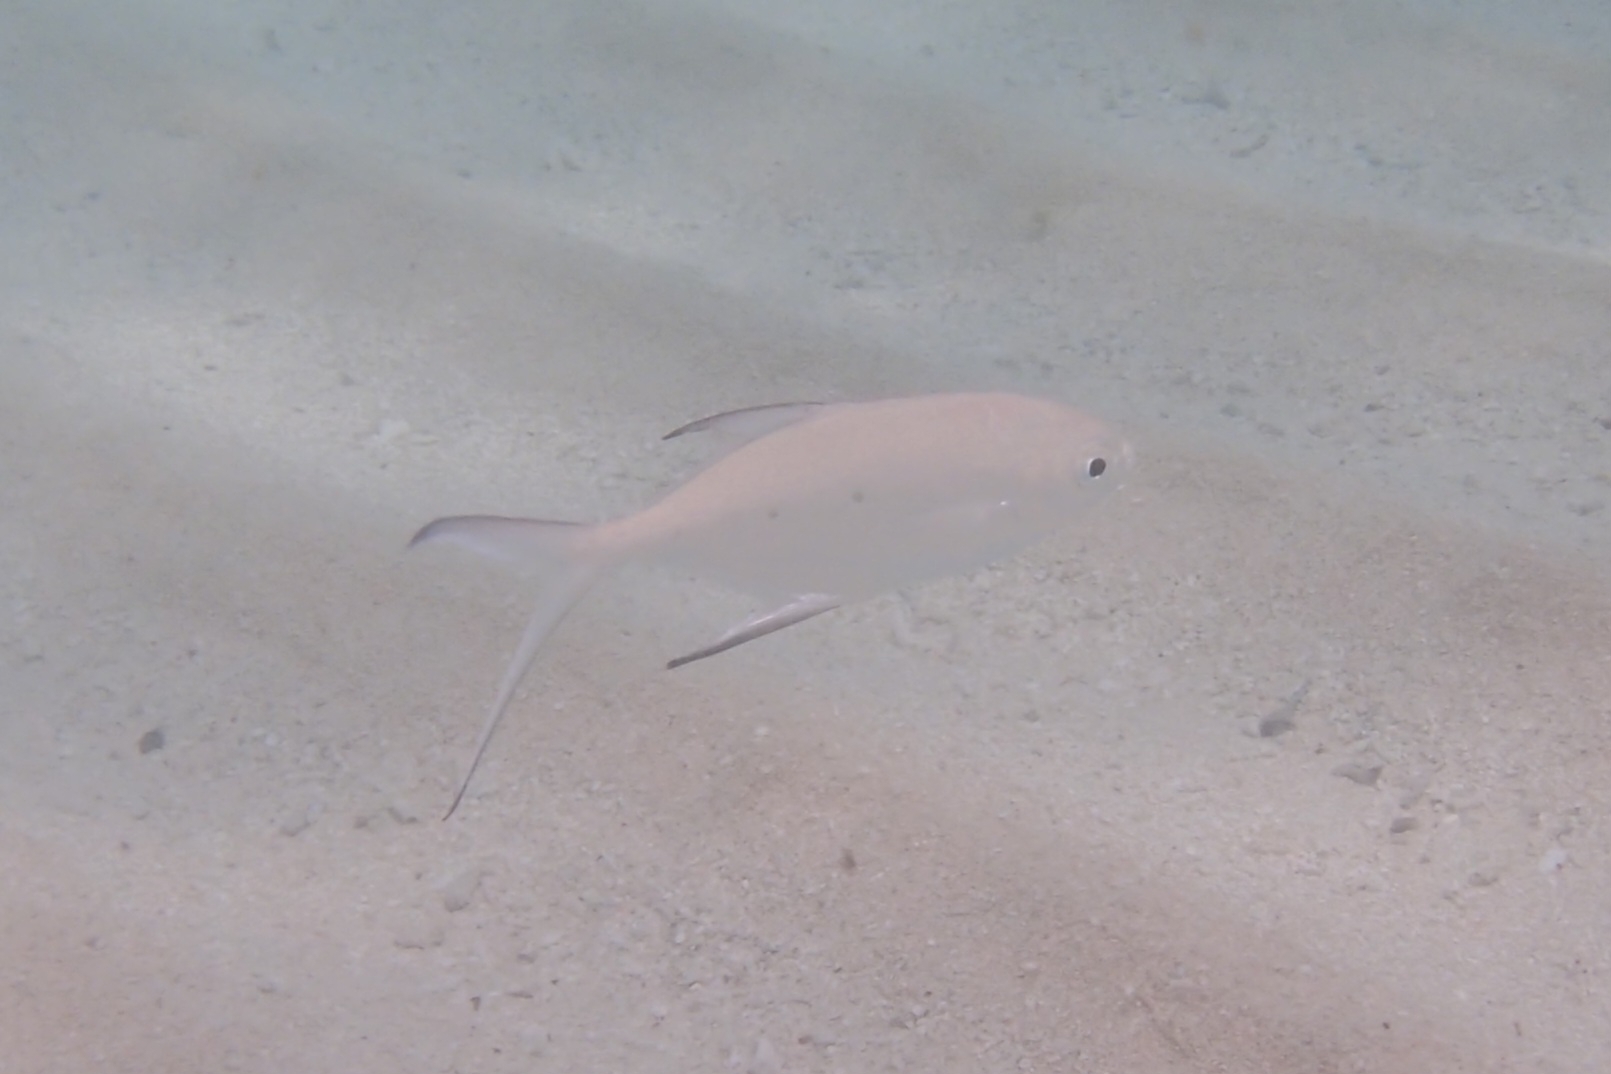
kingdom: Animalia
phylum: Chordata
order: Perciformes
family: Carangidae
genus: Trachinotus
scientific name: Trachinotus baillonii
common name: Smallspotted dart
